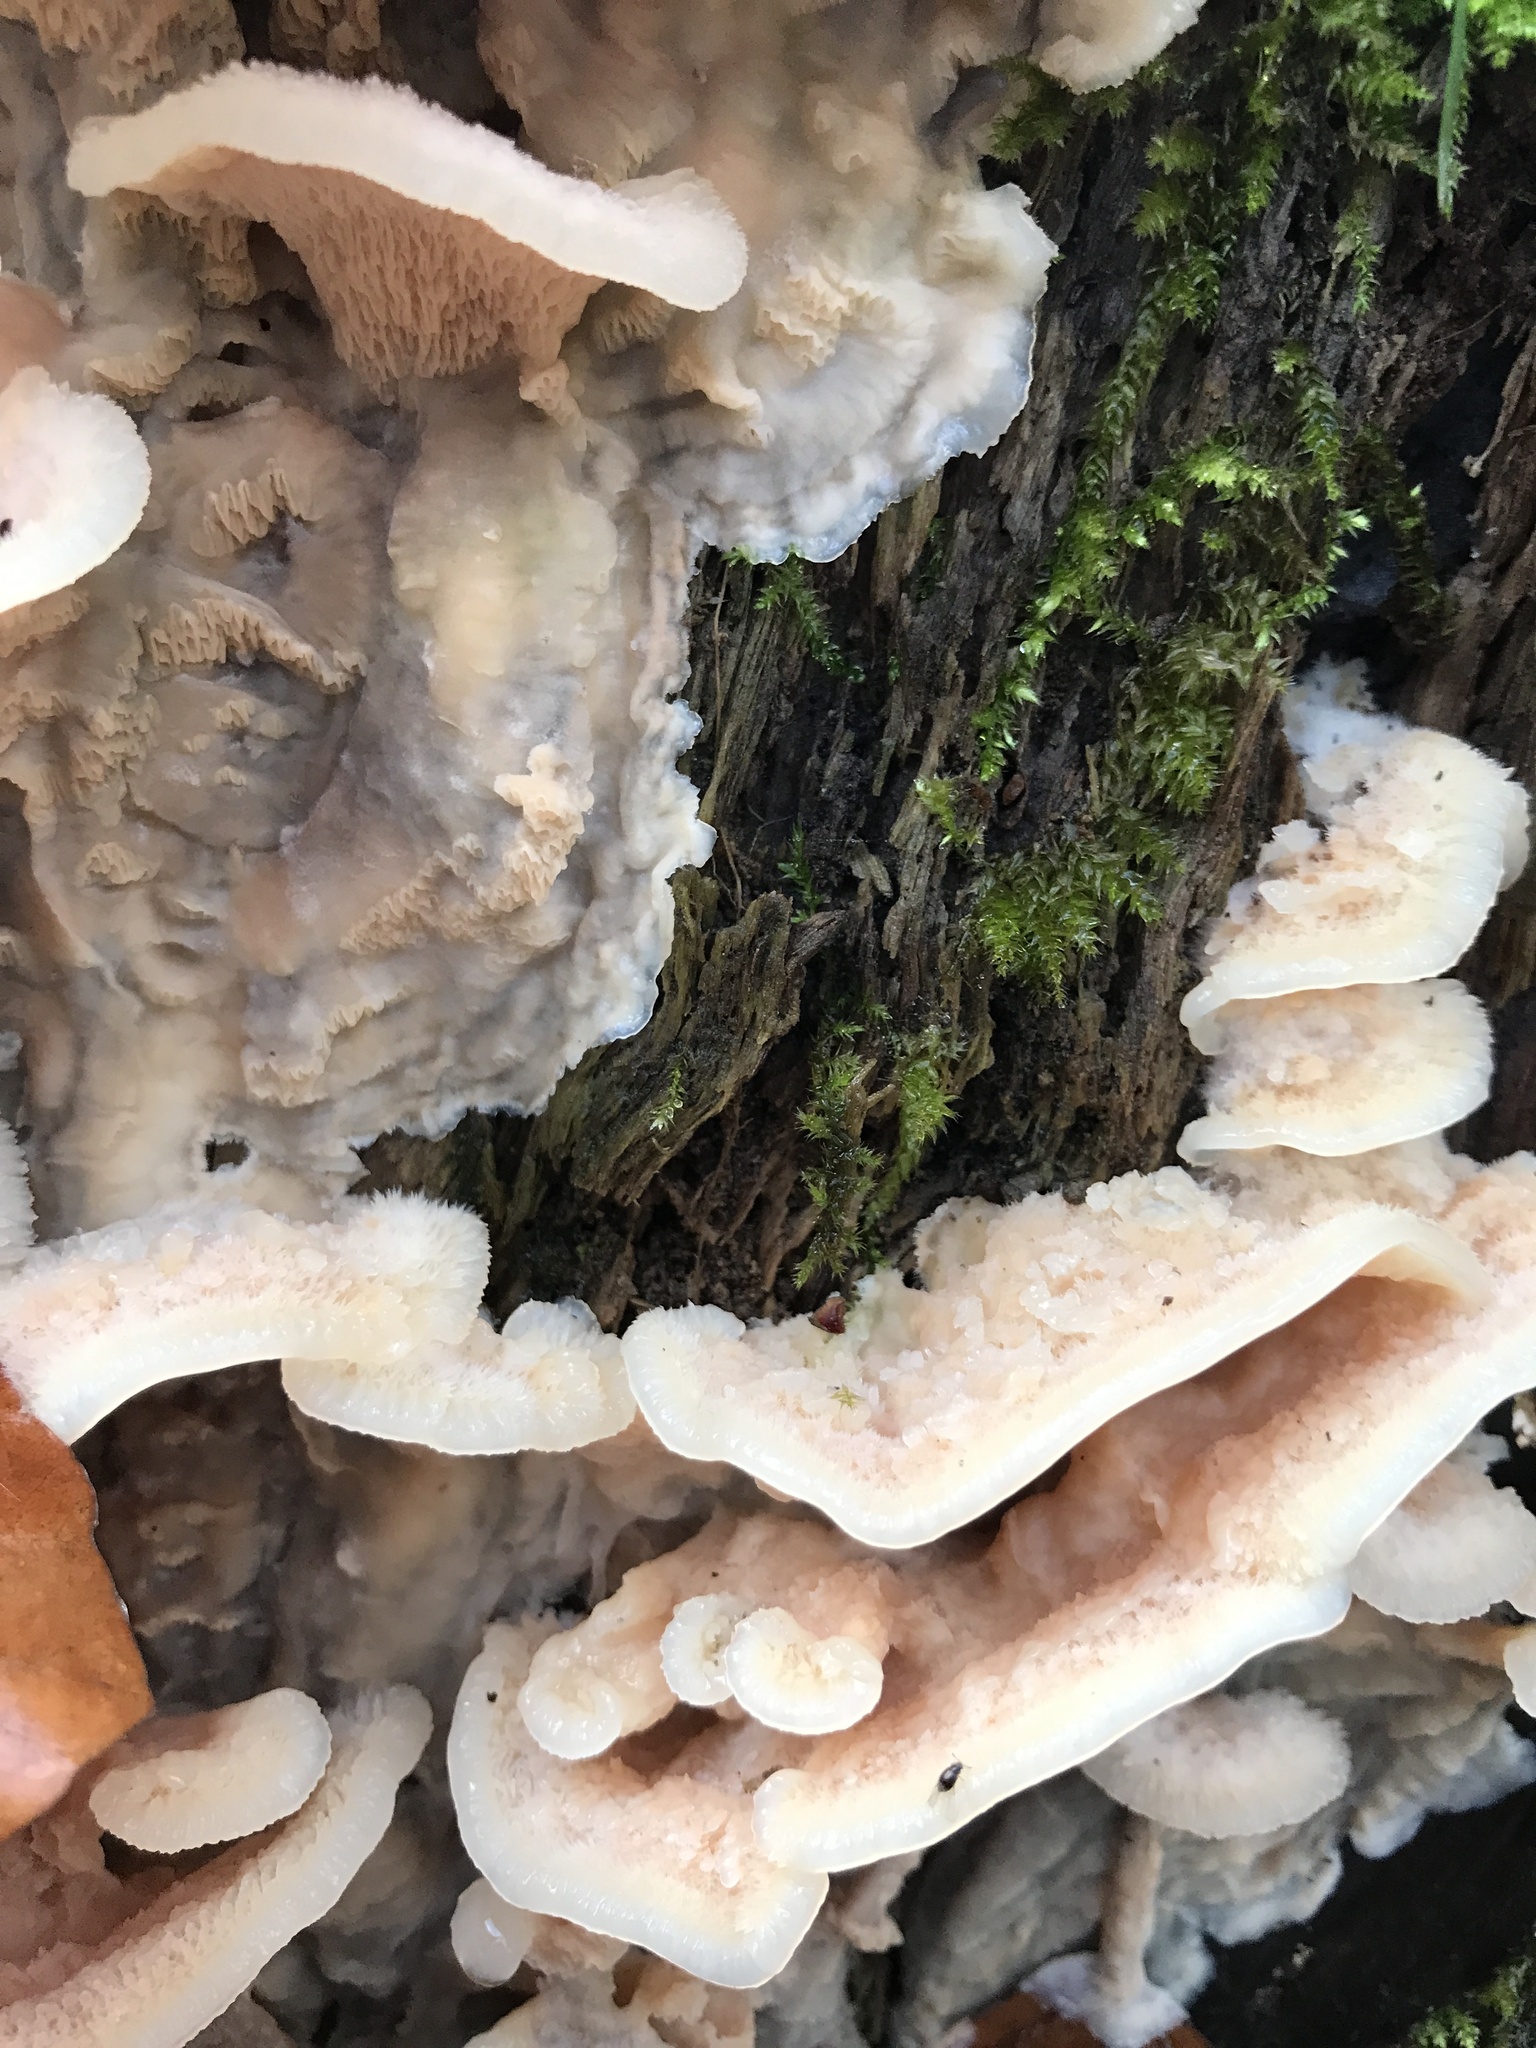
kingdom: Fungi
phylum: Basidiomycota
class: Agaricomycetes
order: Polyporales
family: Meruliaceae
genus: Phlebia
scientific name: Phlebia tremellosa
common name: Jelly rot
